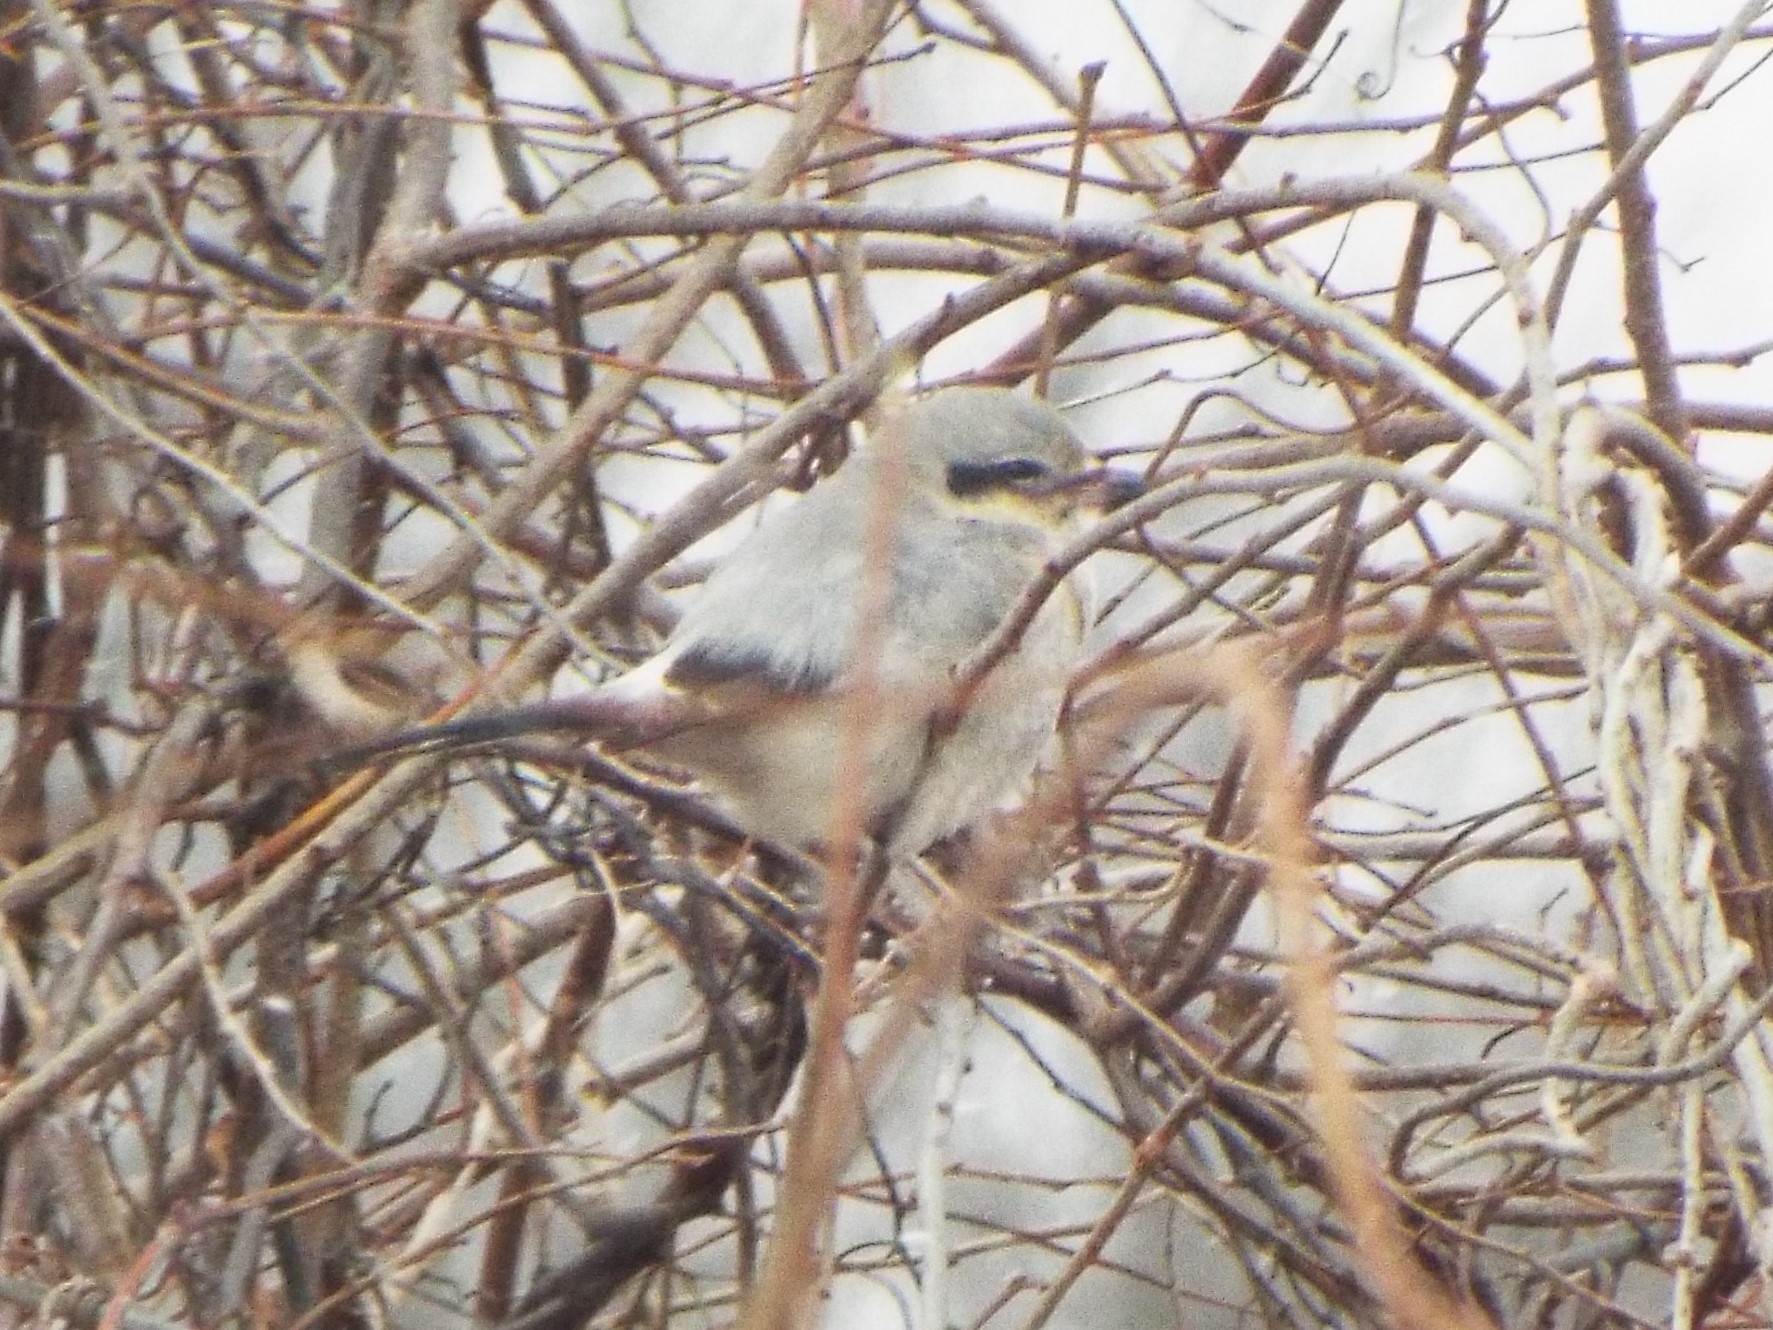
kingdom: Animalia
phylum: Chordata
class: Aves
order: Passeriformes
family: Laniidae
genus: Lanius
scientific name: Lanius borealis
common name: Northern shrike
